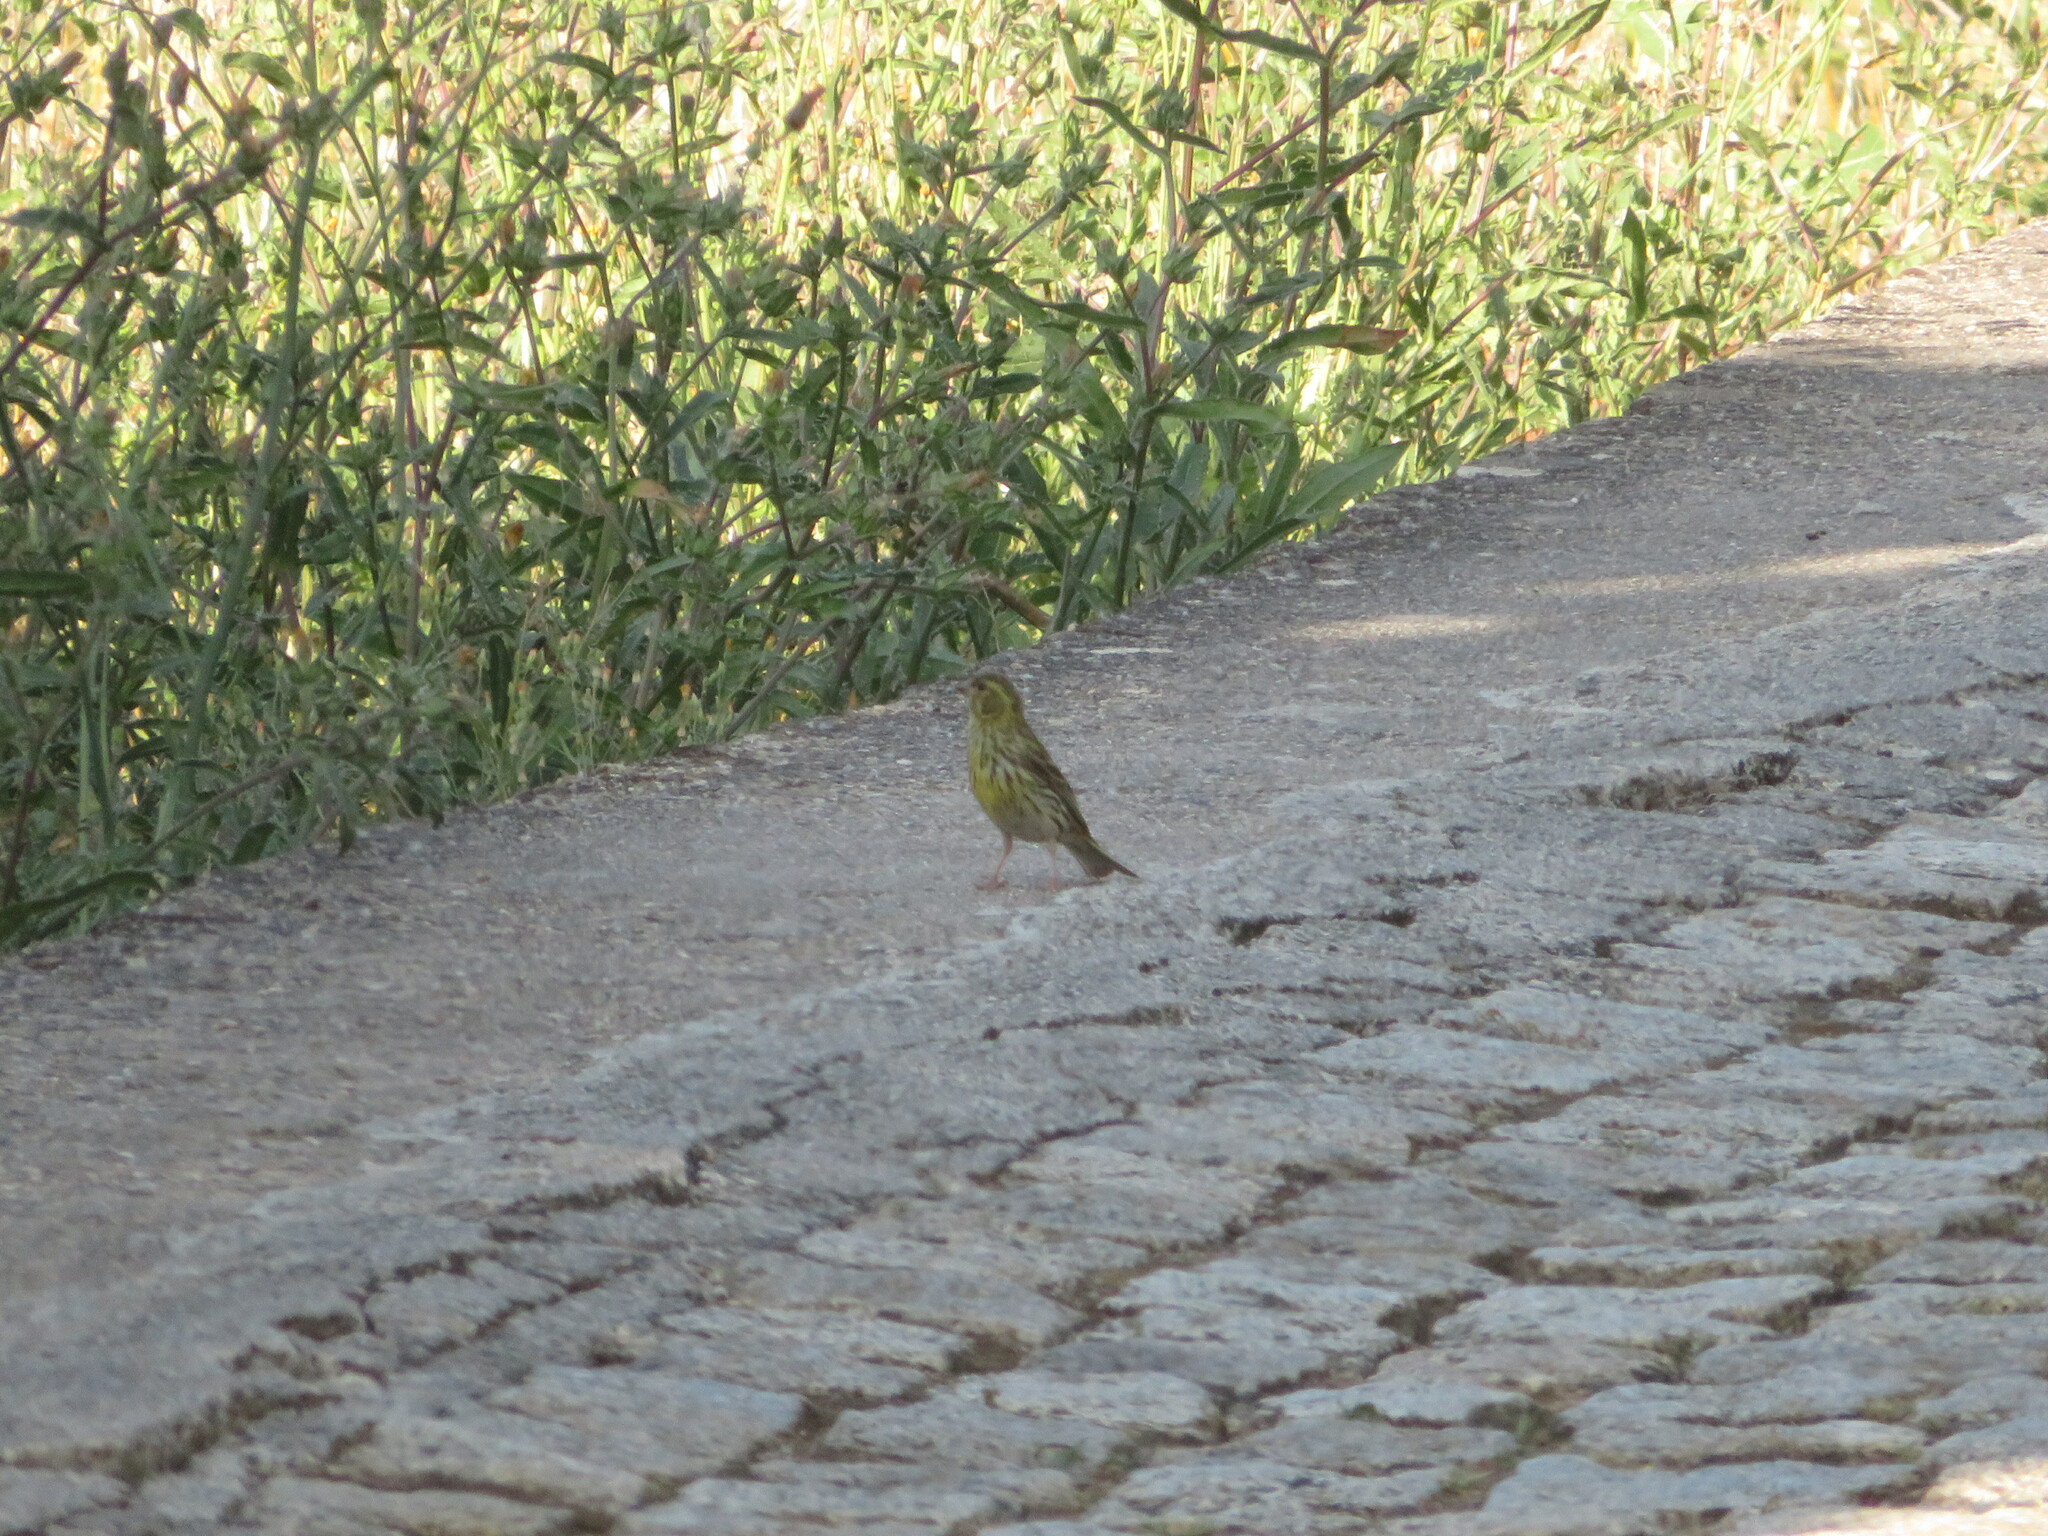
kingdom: Animalia
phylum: Chordata
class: Aves
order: Passeriformes
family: Fringillidae
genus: Serinus
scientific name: Serinus serinus
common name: European serin
